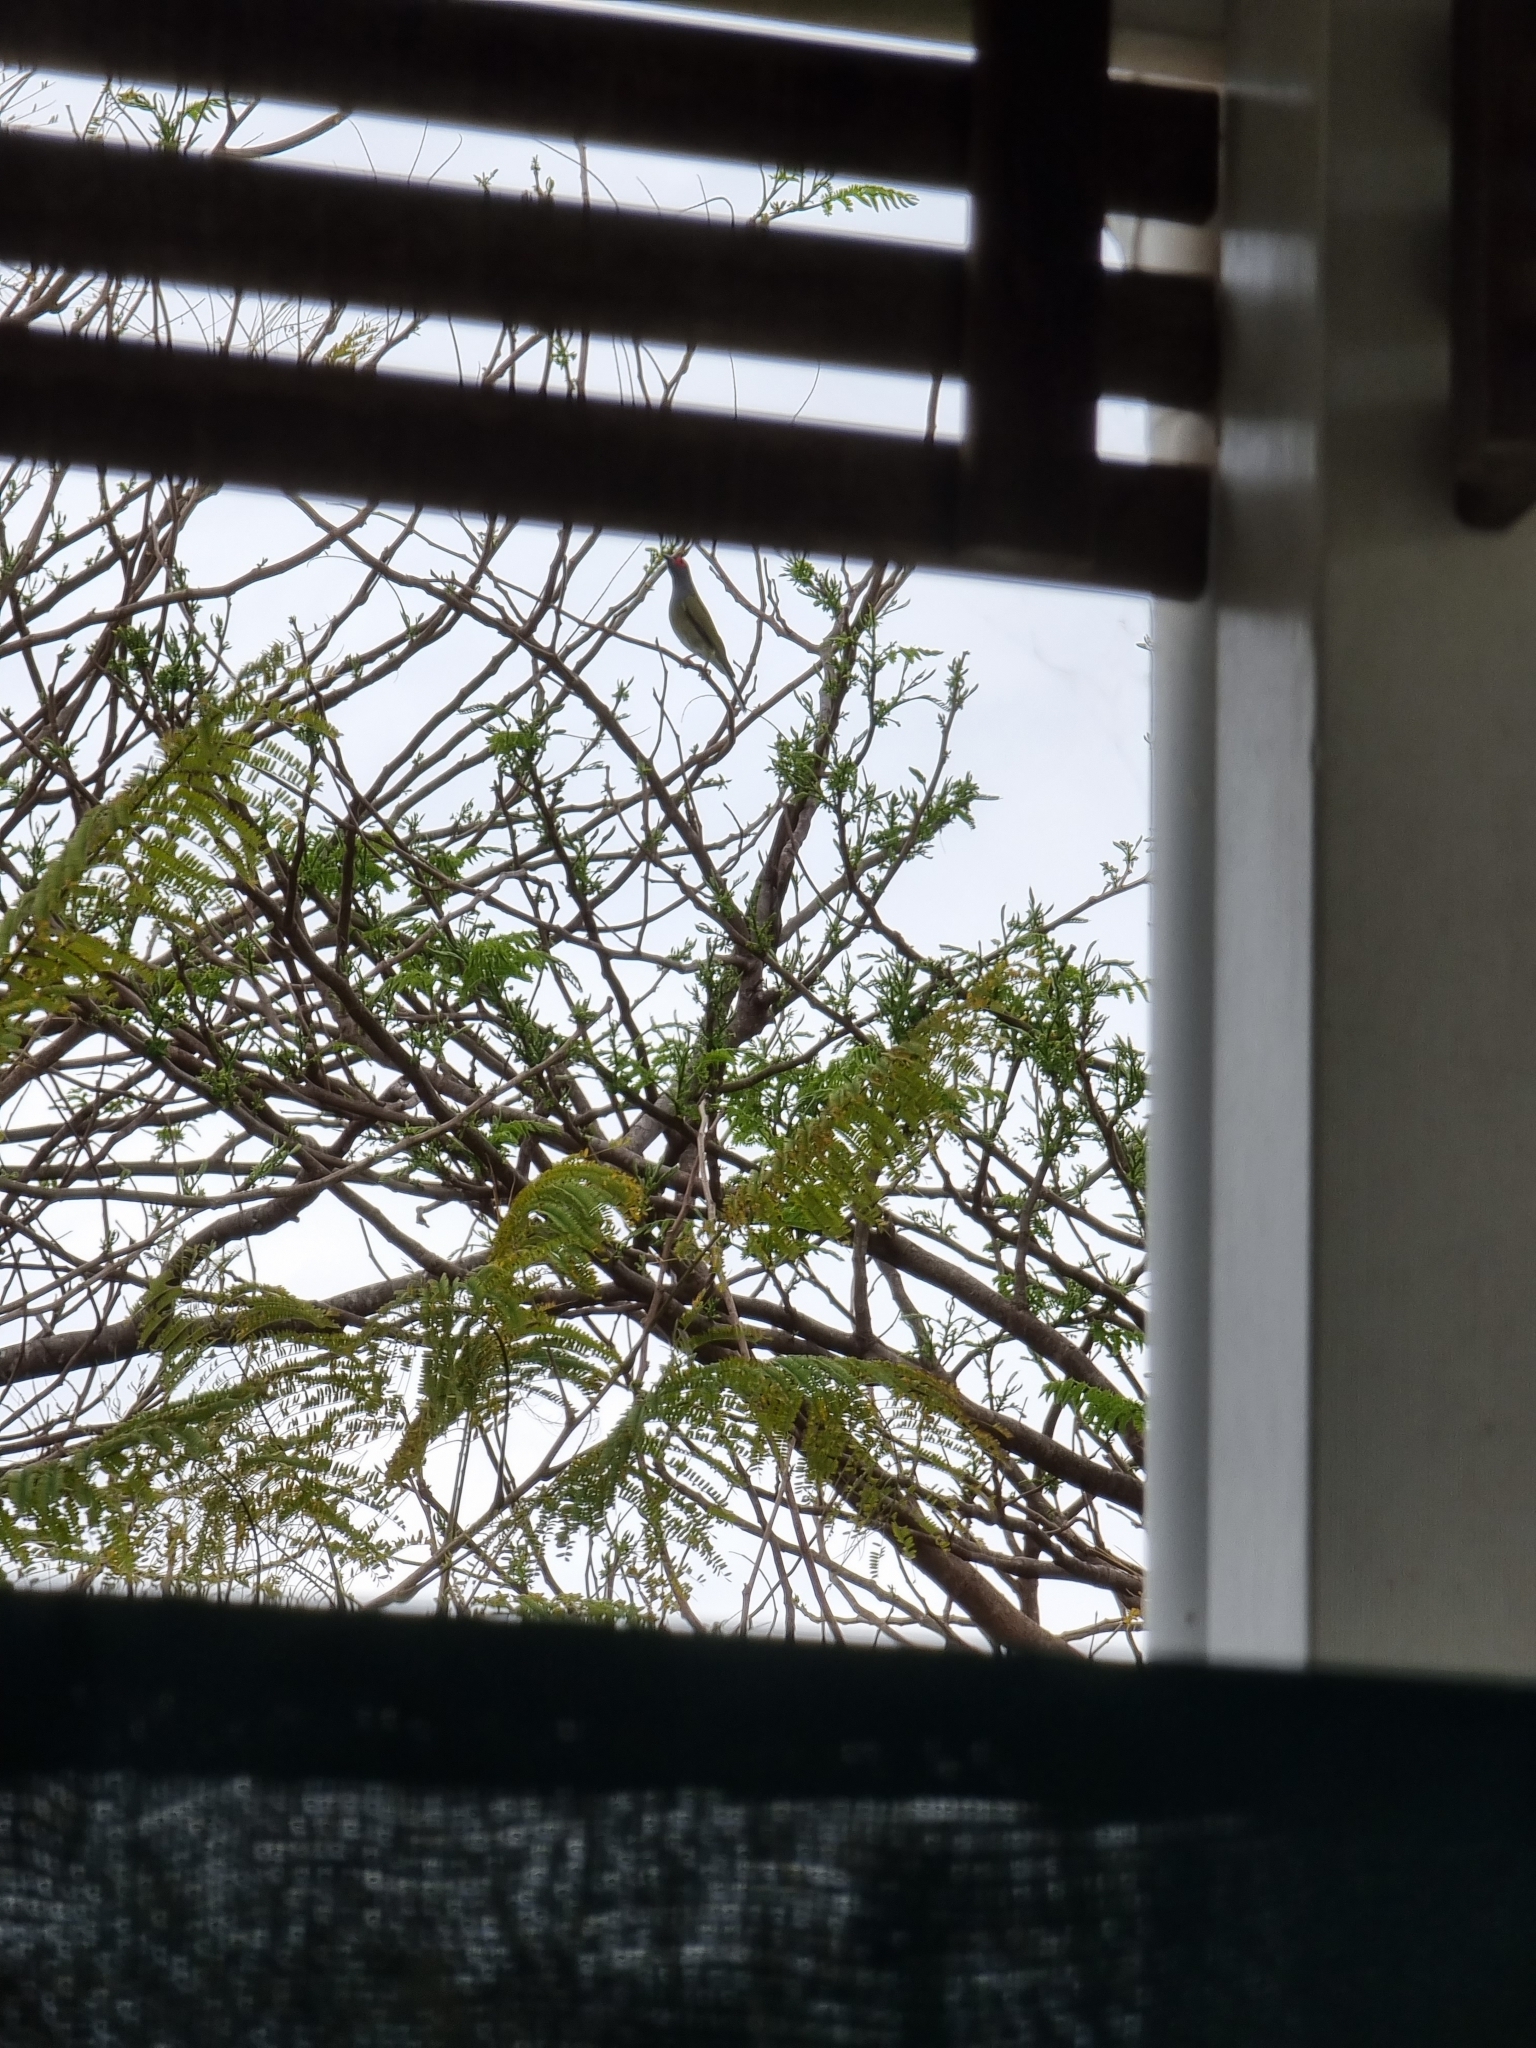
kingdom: Animalia
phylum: Chordata
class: Aves
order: Passeriformes
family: Oriolidae
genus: Sphecotheres
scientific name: Sphecotheres vieilloti
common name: Australasian figbird
